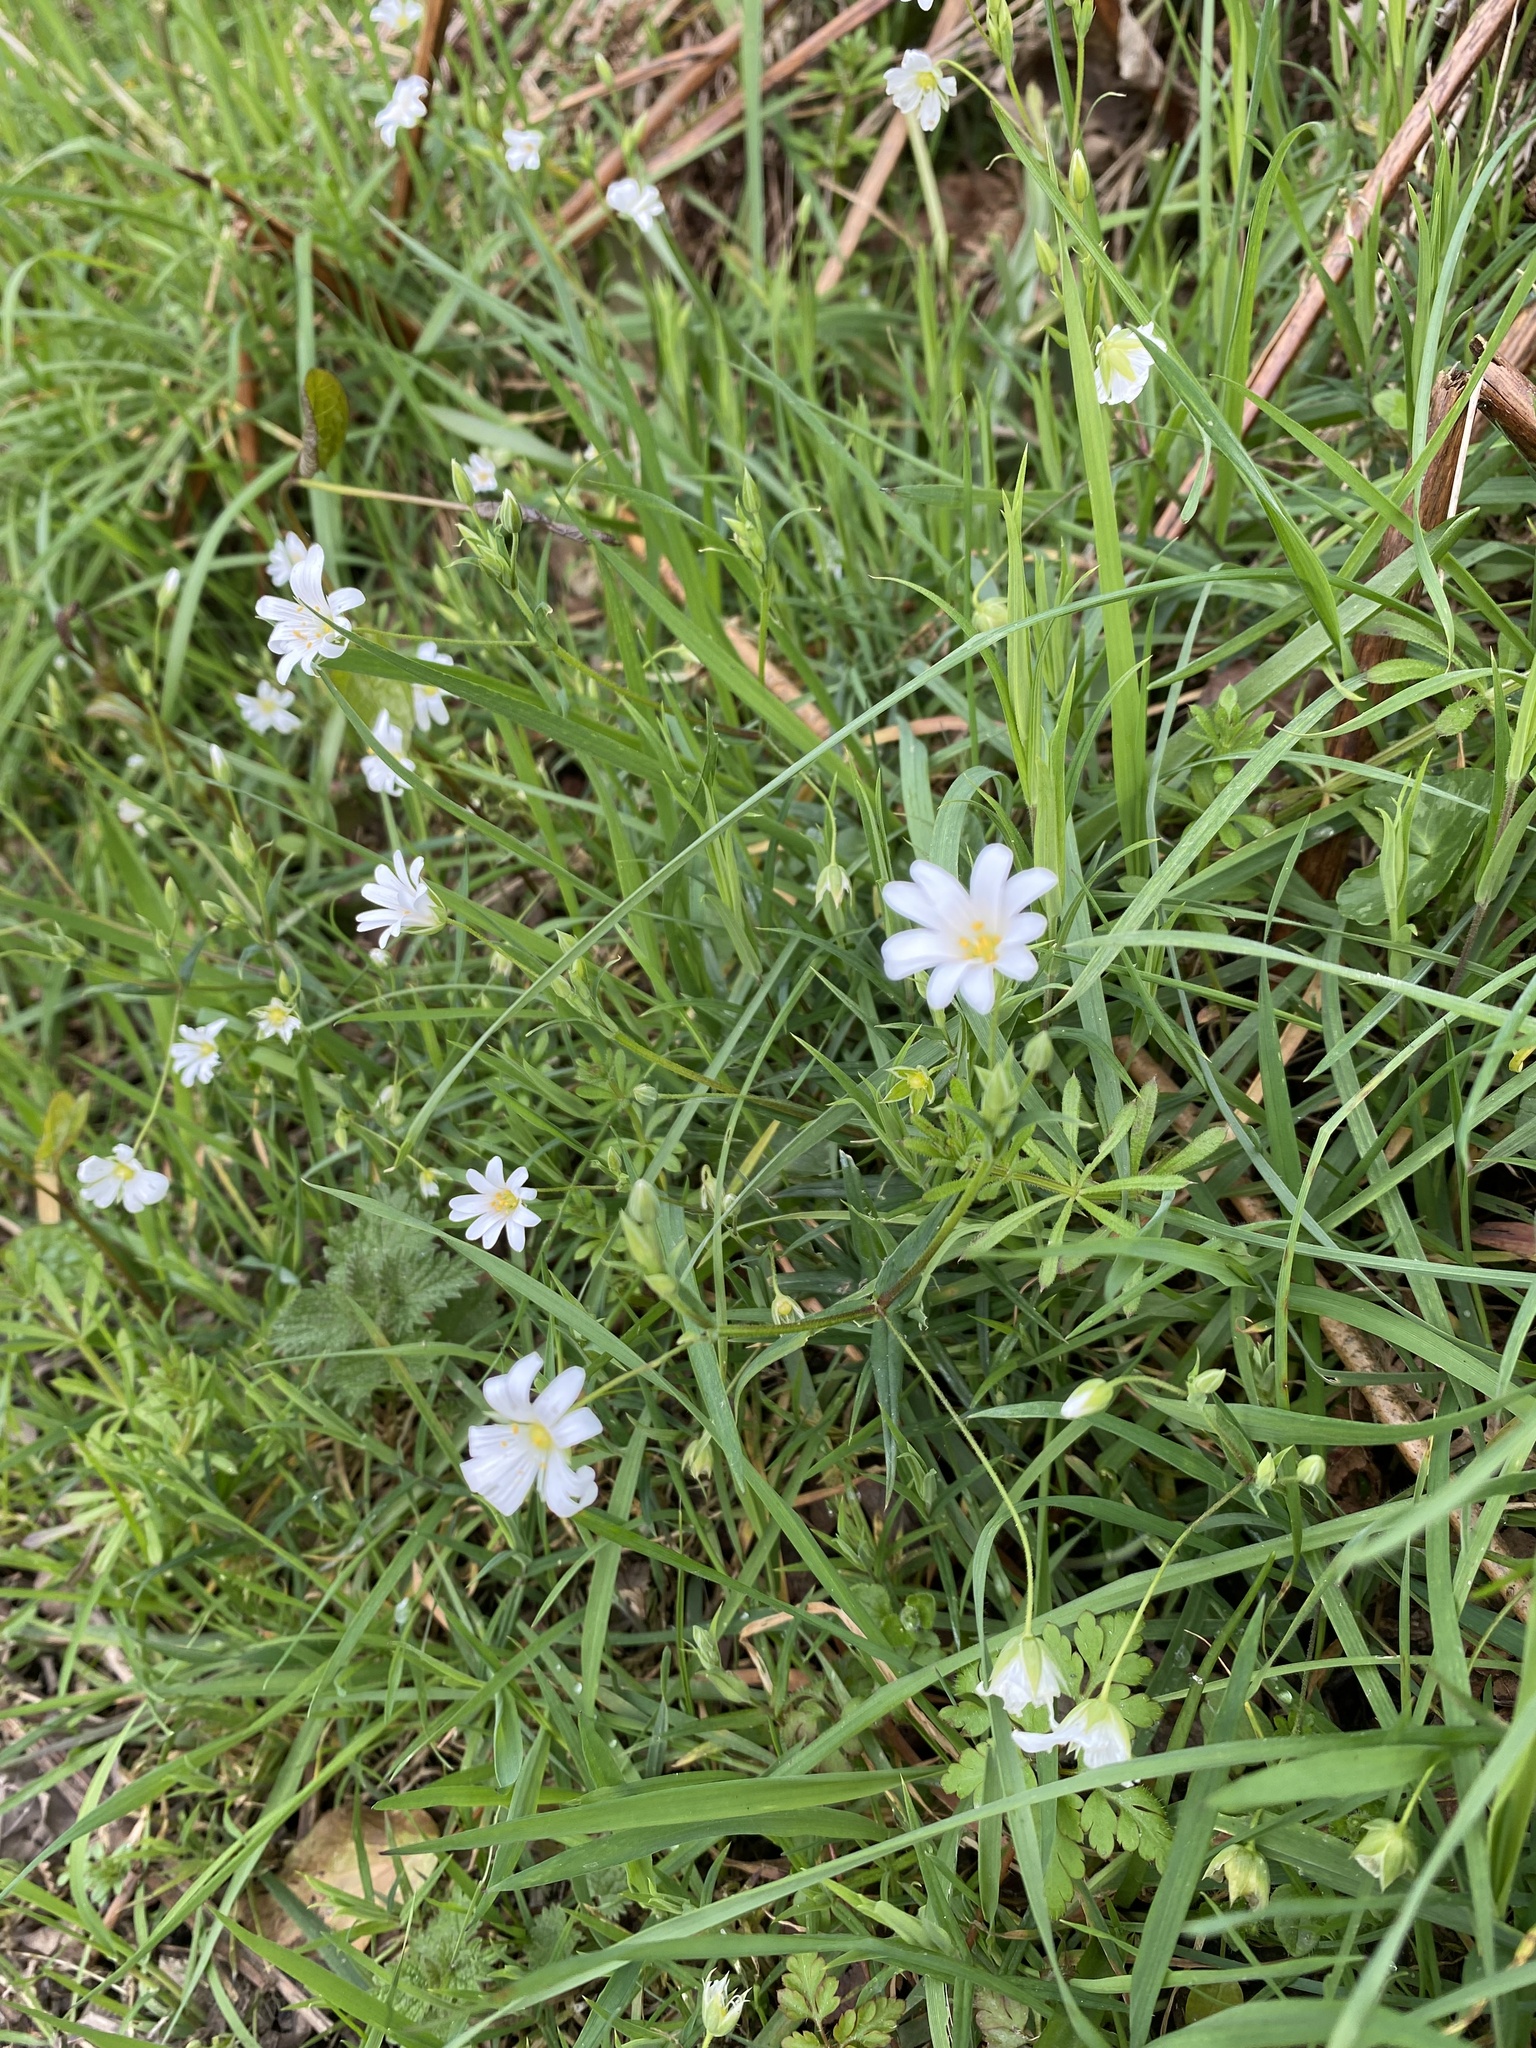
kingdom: Plantae
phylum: Tracheophyta
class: Magnoliopsida
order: Caryophyllales
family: Caryophyllaceae
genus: Rabelera
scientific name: Rabelera holostea
